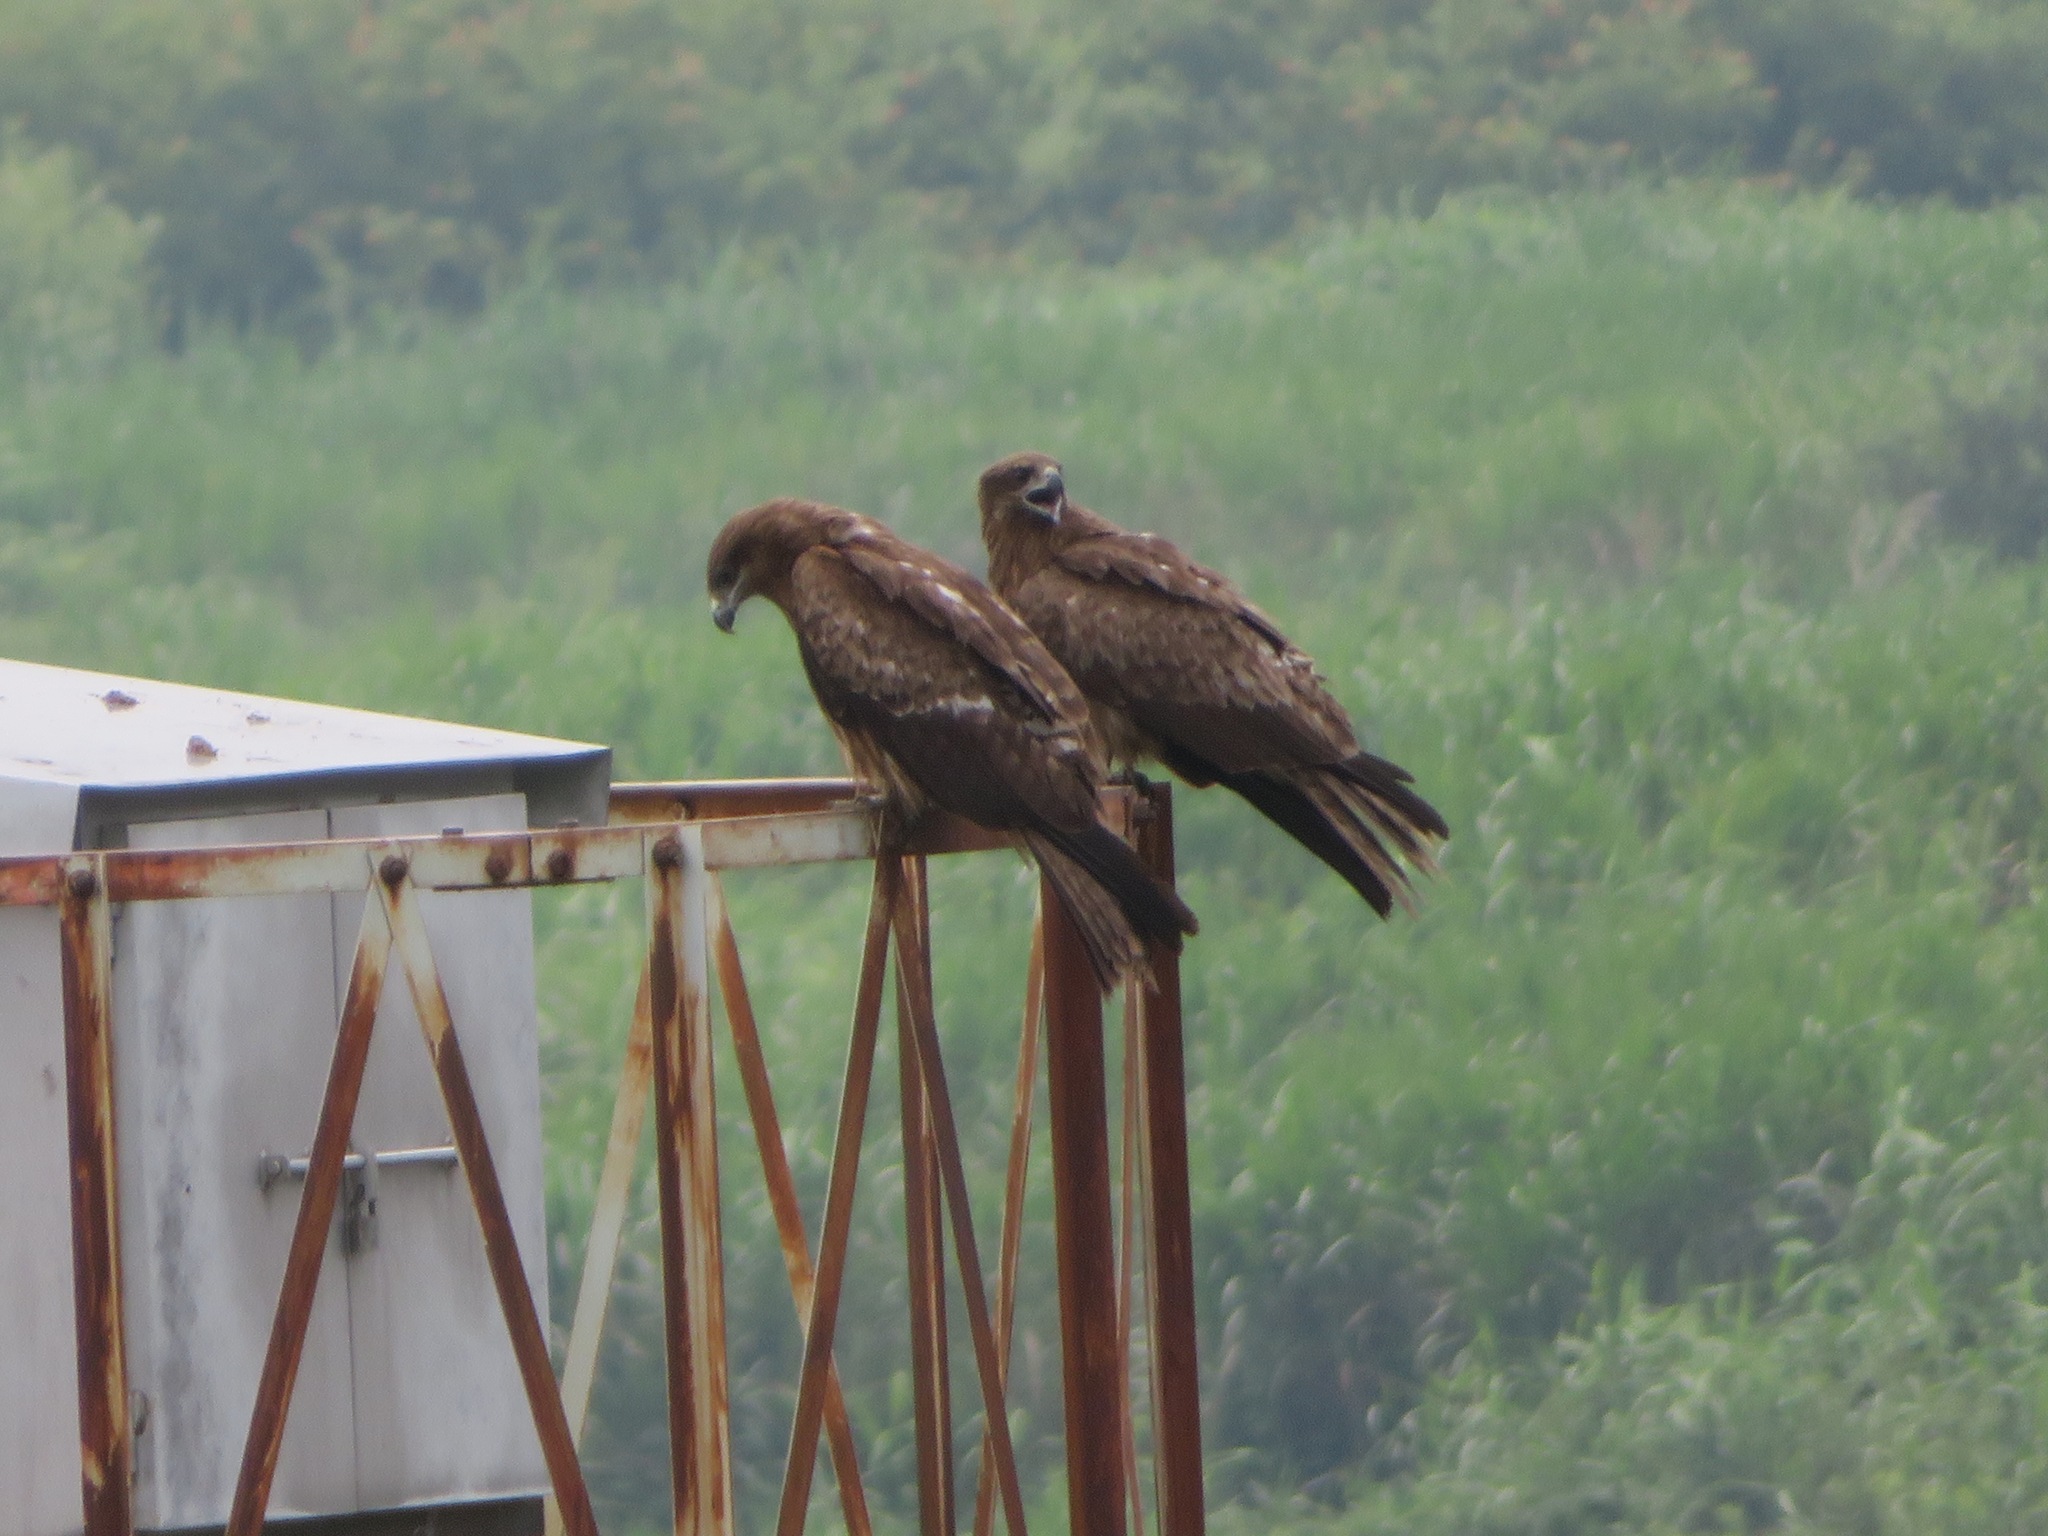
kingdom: Animalia
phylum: Chordata
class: Aves
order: Accipitriformes
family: Accipitridae
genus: Milvus
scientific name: Milvus migrans
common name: Black kite
